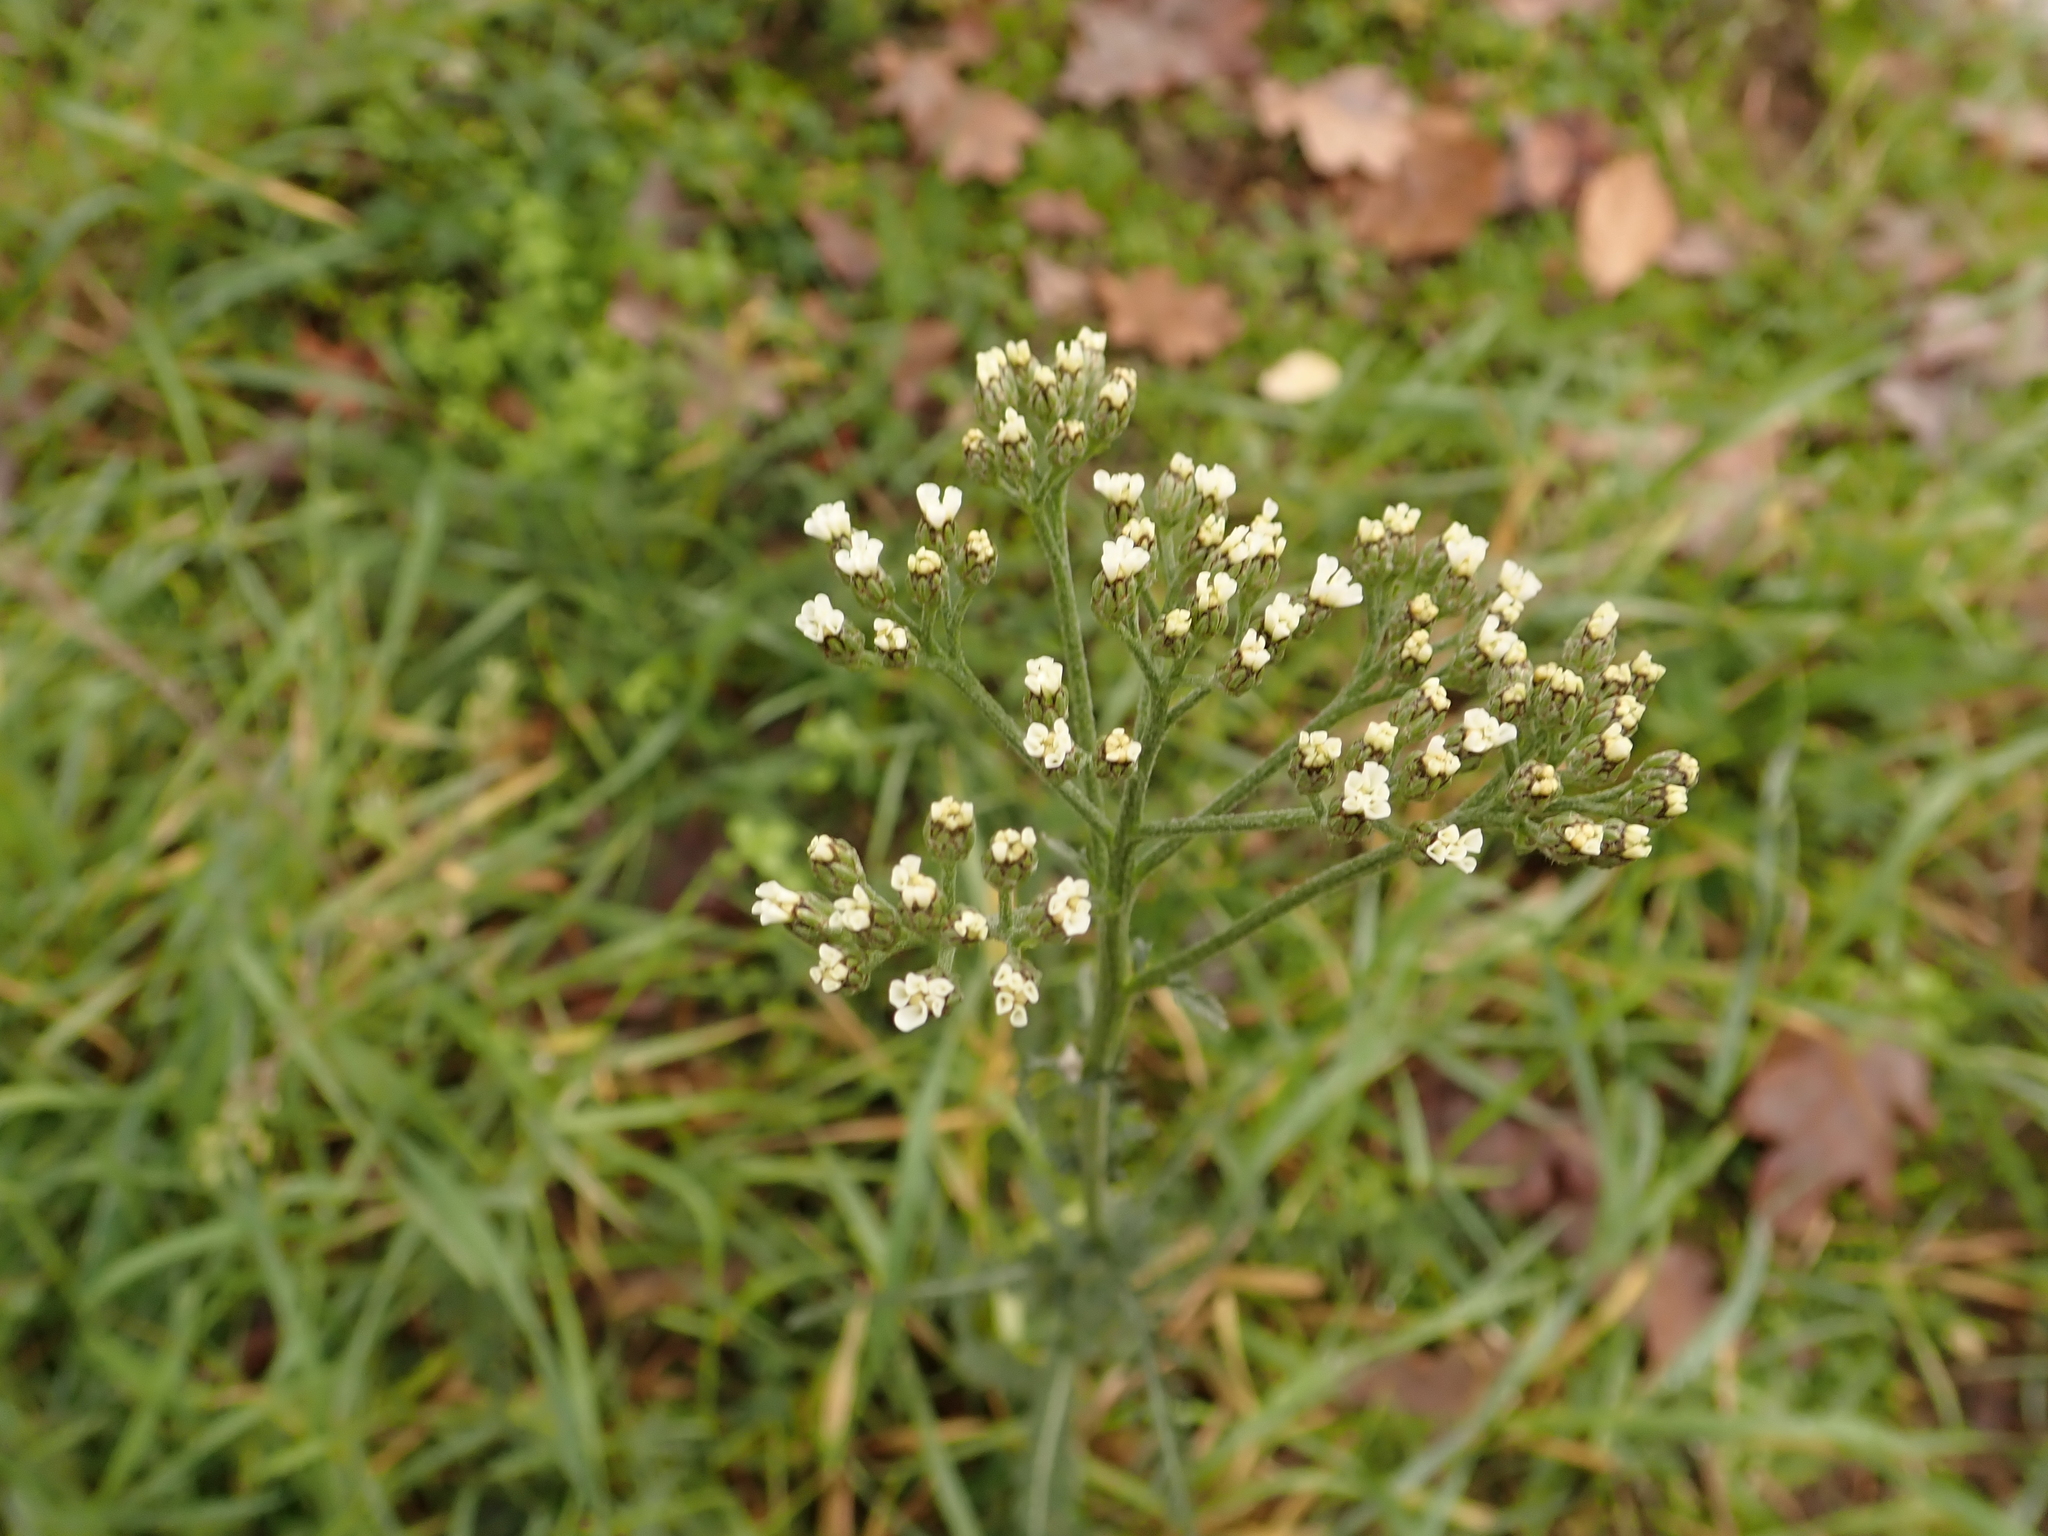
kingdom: Plantae
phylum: Tracheophyta
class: Magnoliopsida
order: Asterales
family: Asteraceae
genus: Achillea
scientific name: Achillea millefolium
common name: Yarrow
